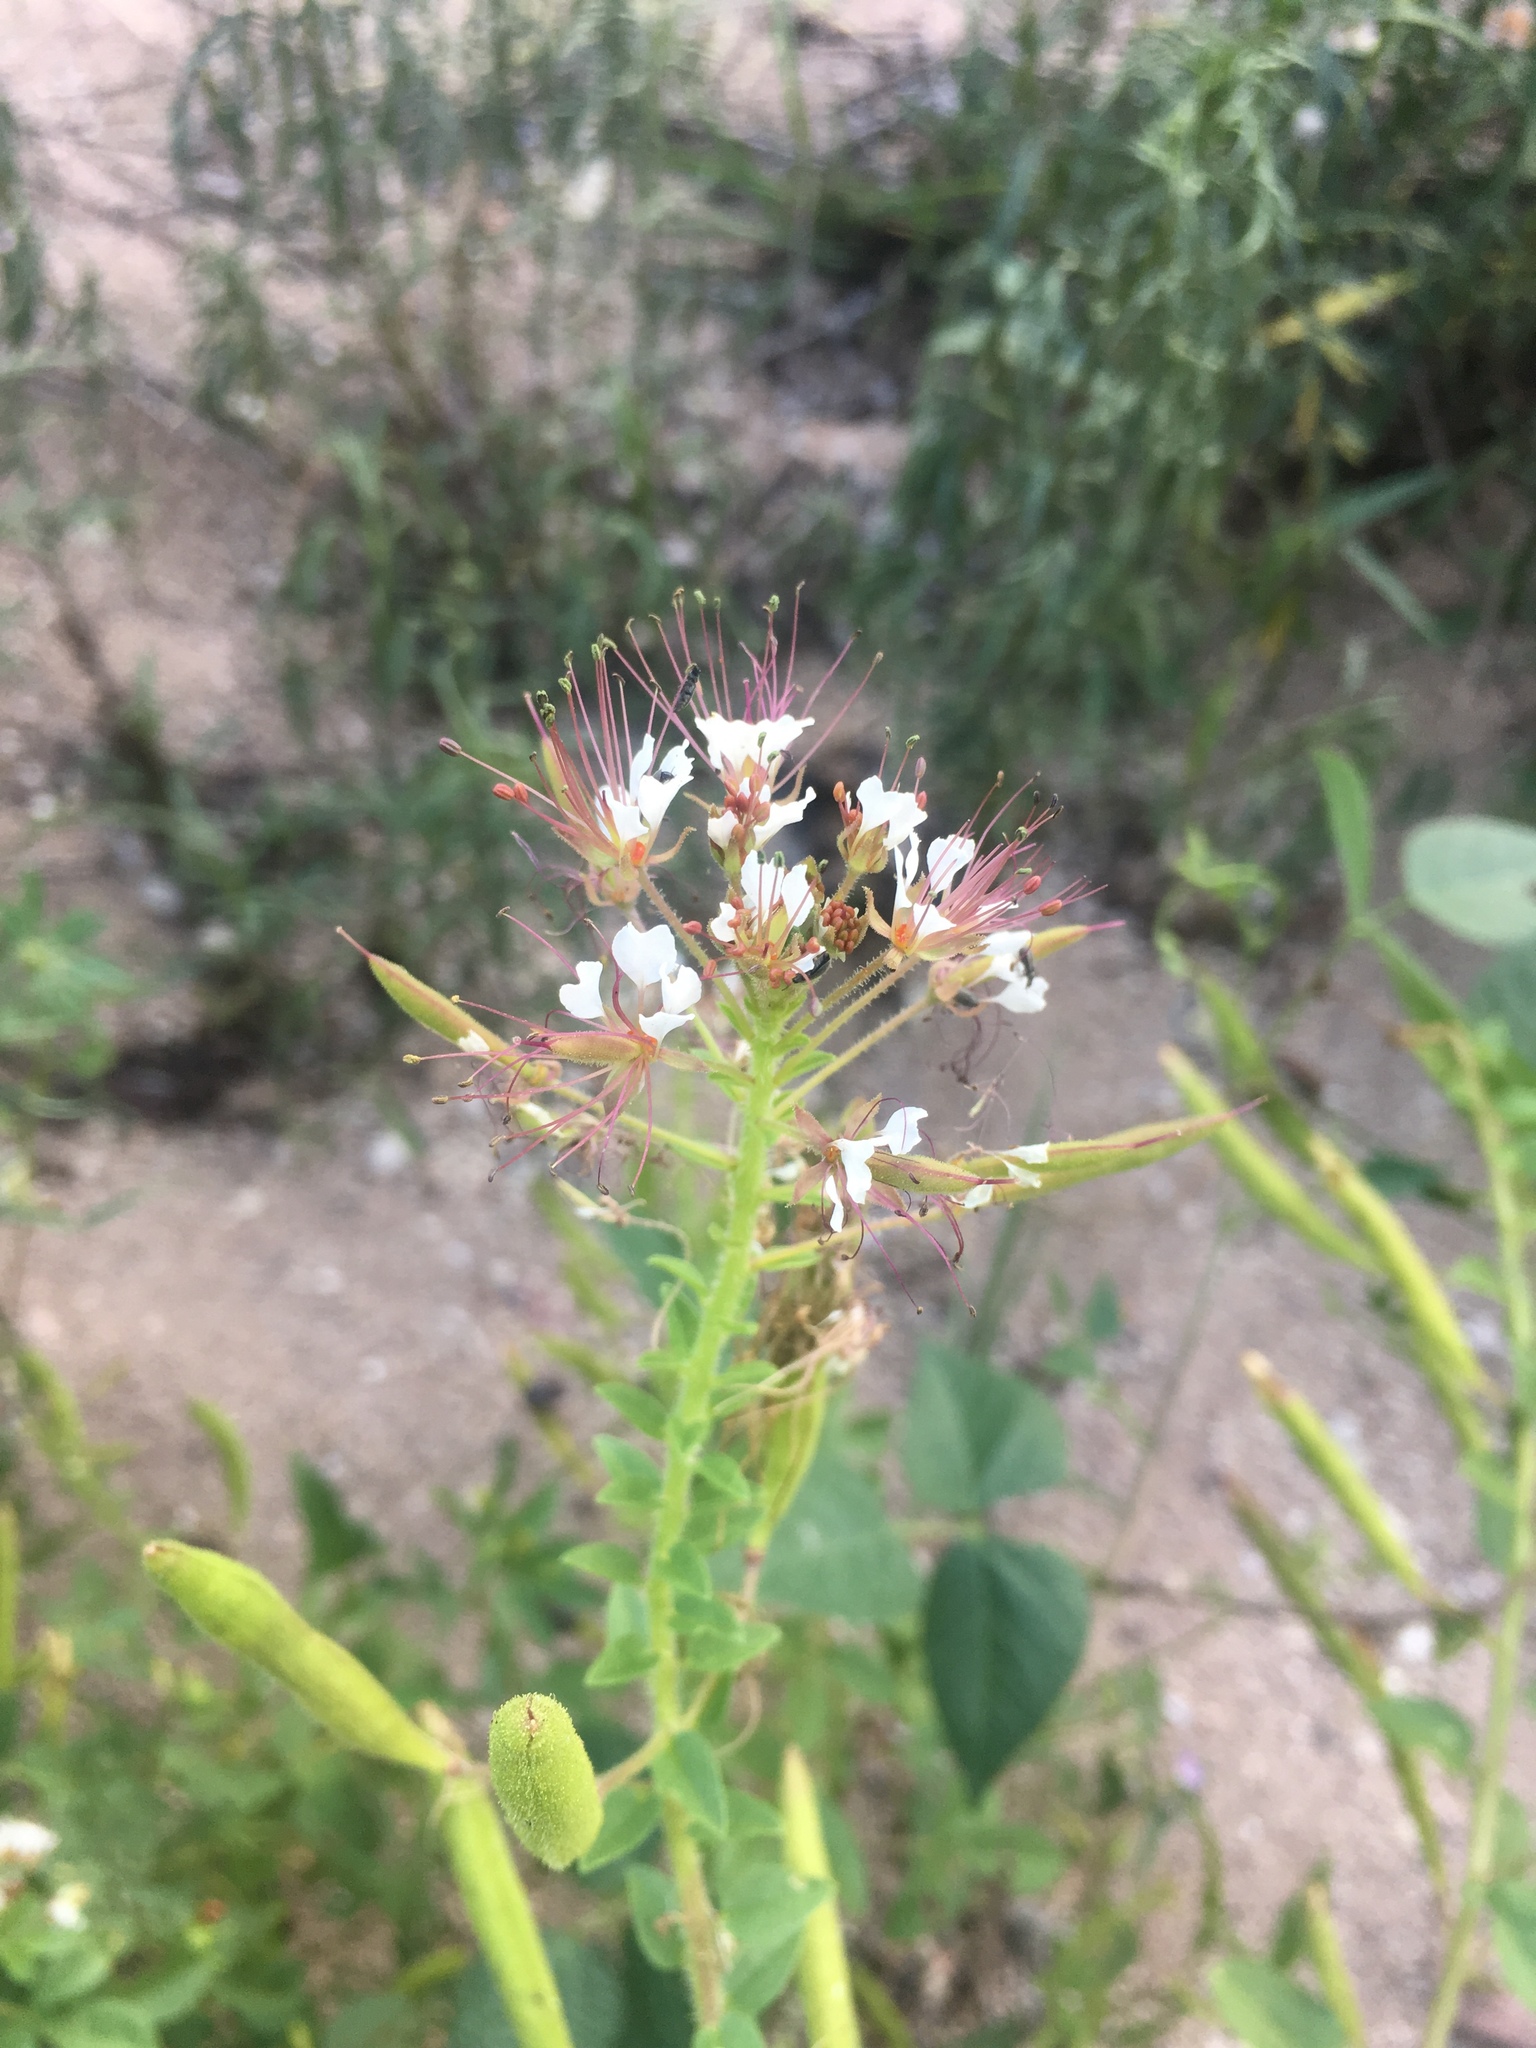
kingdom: Plantae
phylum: Tracheophyta
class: Magnoliopsida
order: Brassicales
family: Cleomaceae
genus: Polanisia
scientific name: Polanisia dodecandra
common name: Clammyweed
